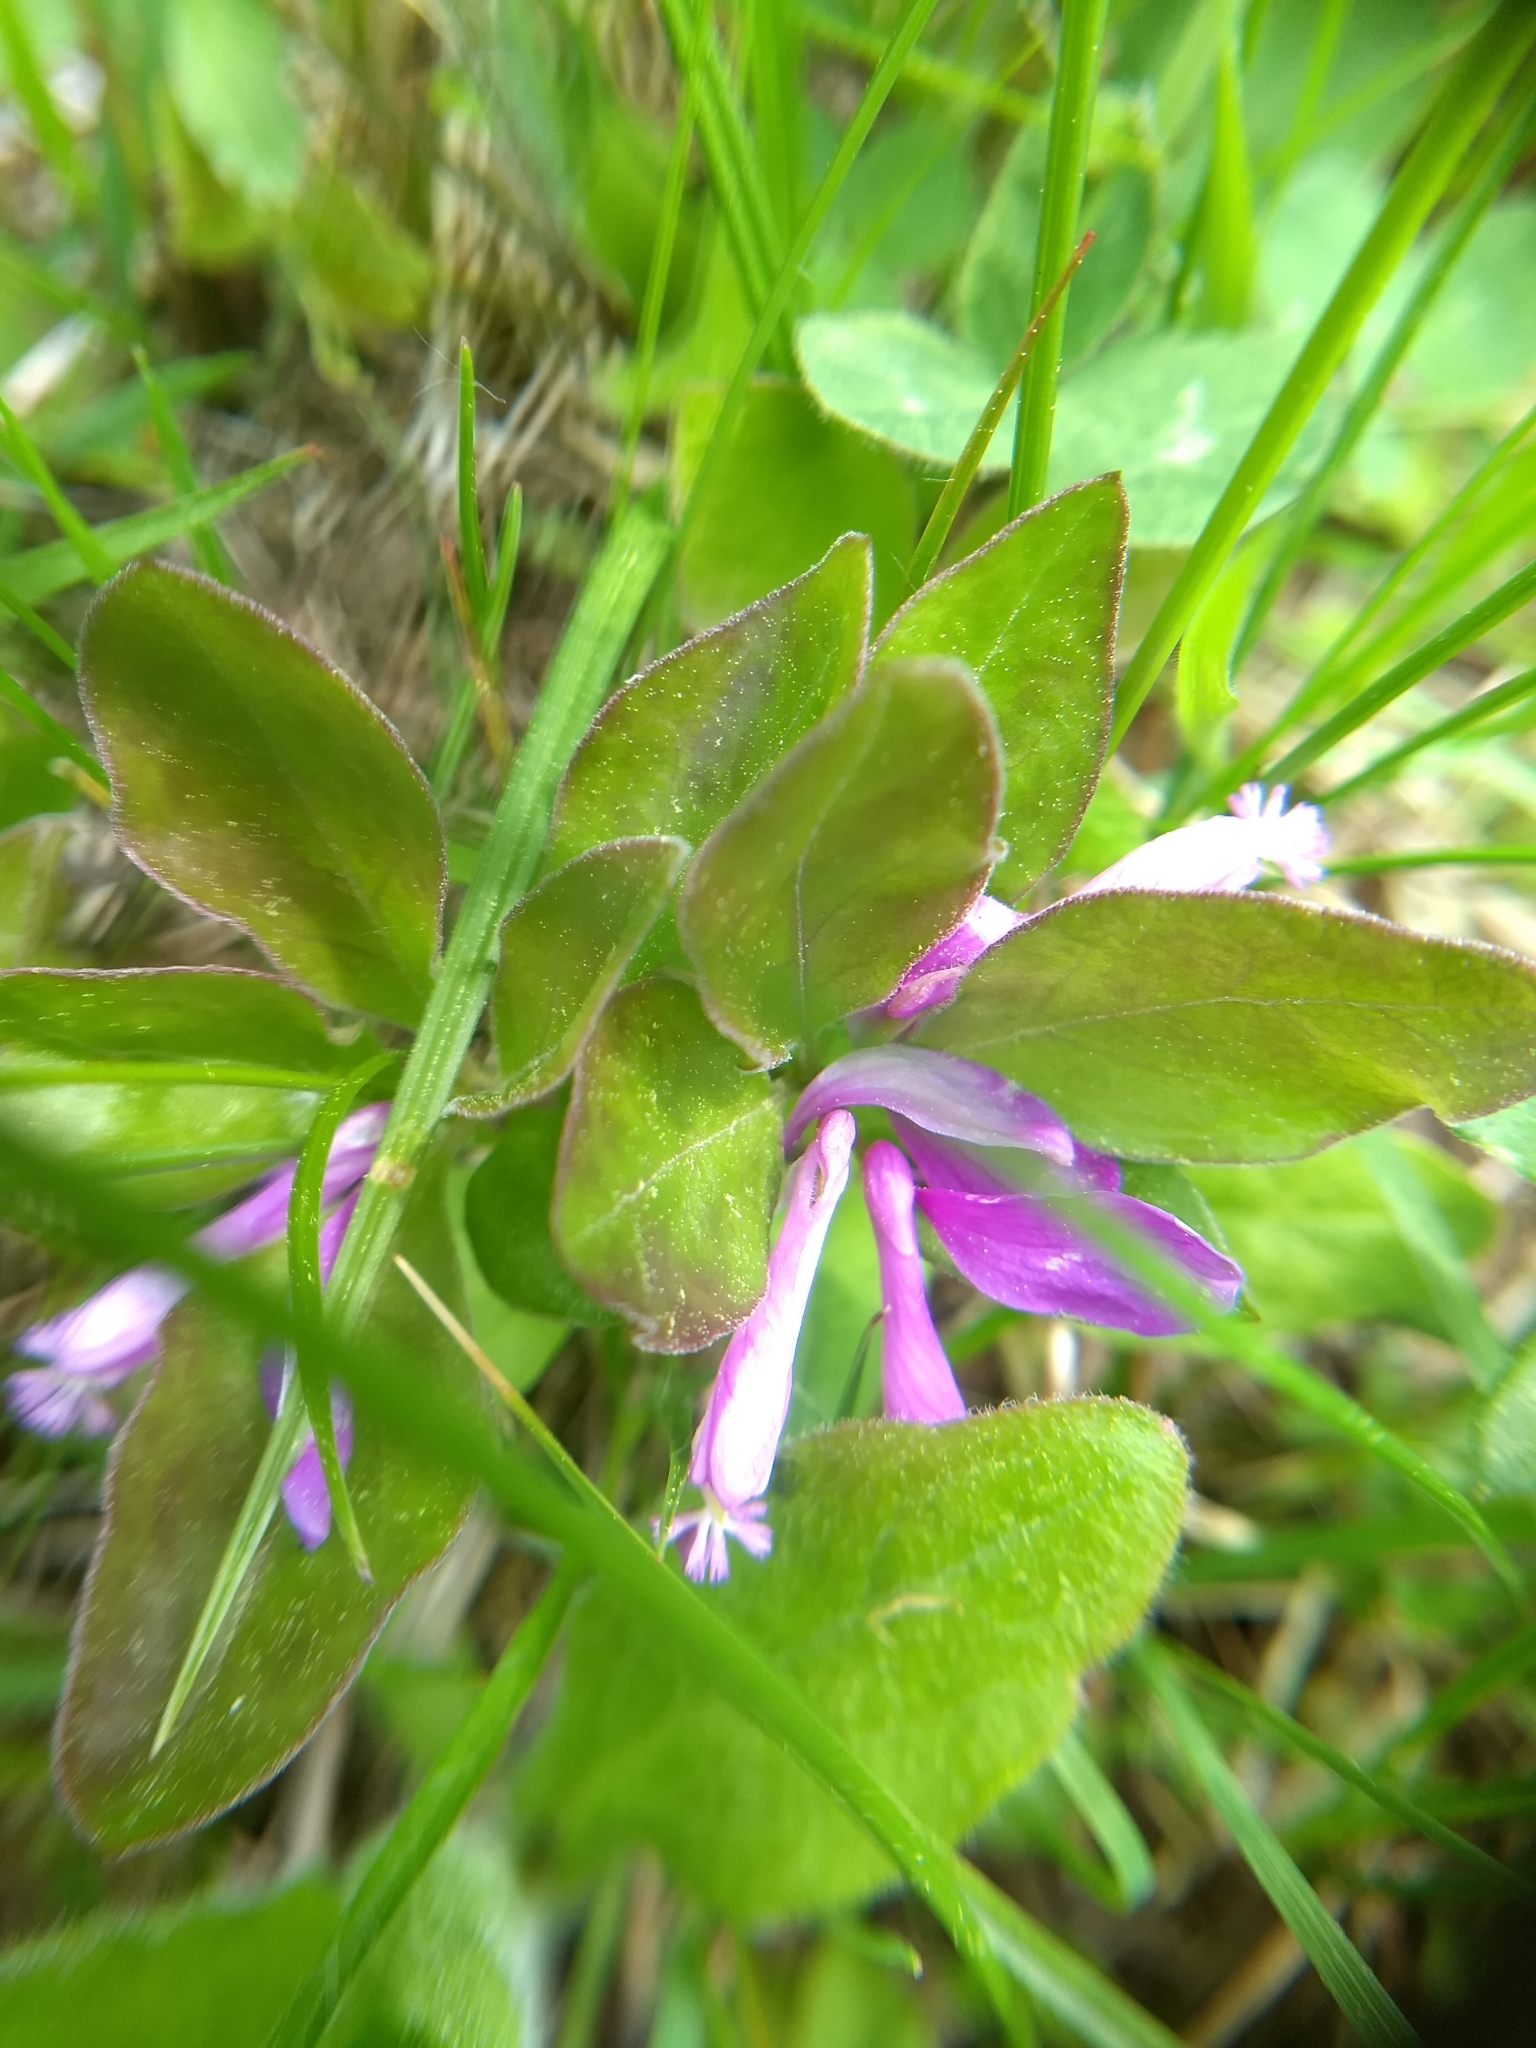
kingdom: Plantae
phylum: Tracheophyta
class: Magnoliopsida
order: Fabales
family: Polygalaceae
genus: Polygaloides
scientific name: Polygaloides paucifolia
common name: Bird-on-the-wing
